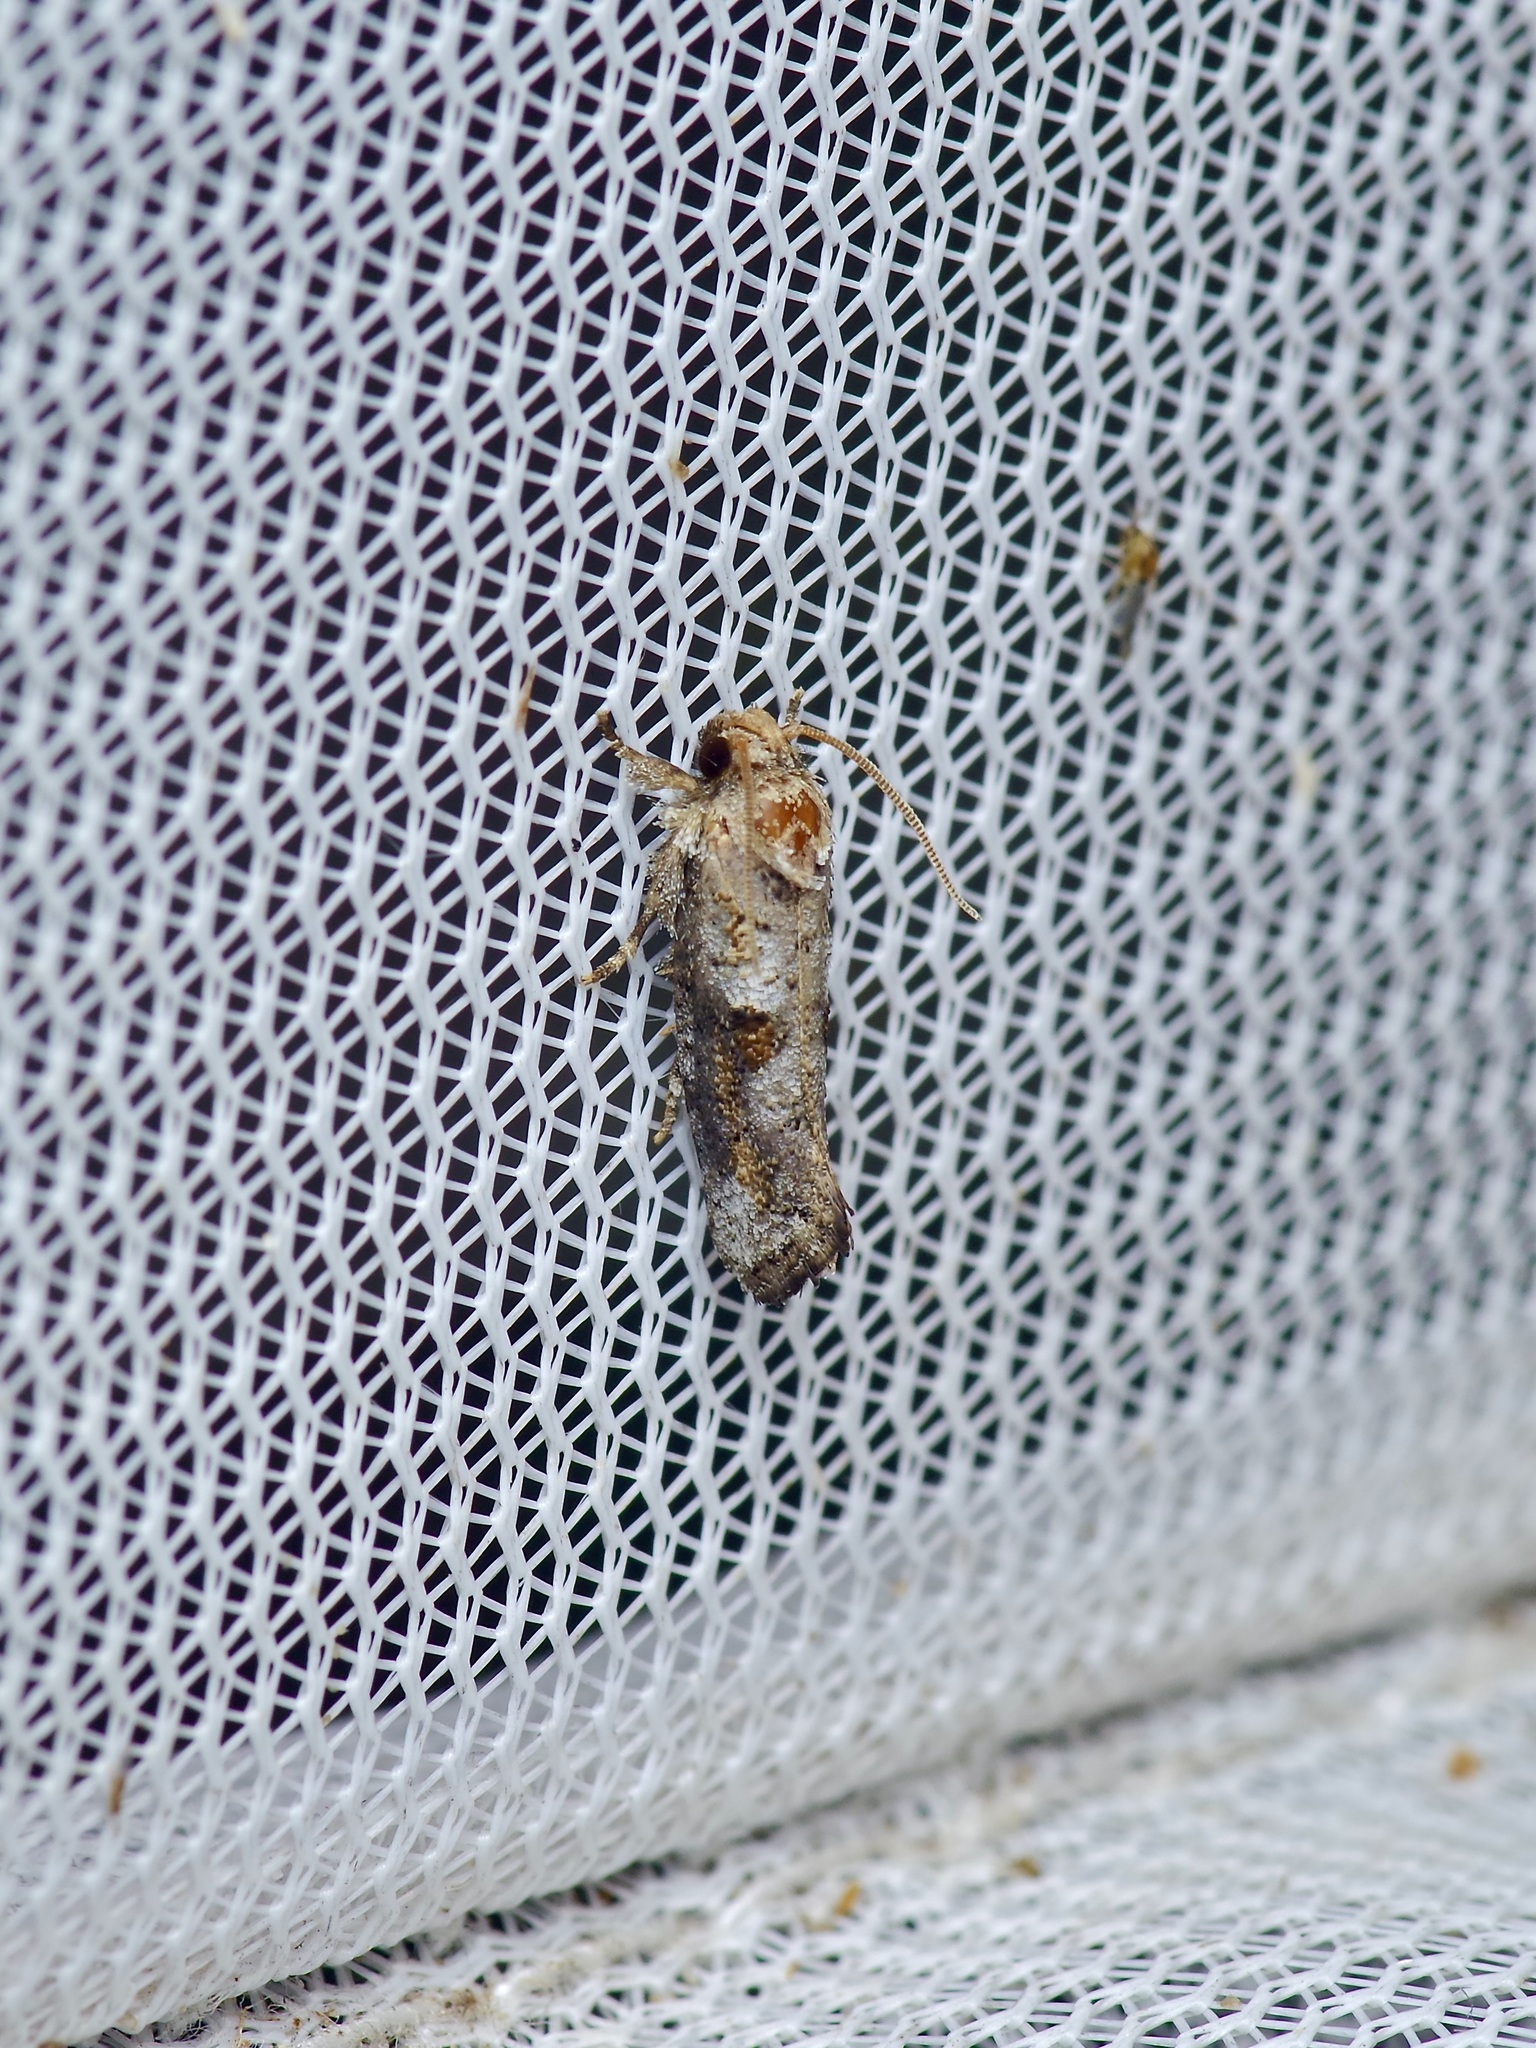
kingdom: Animalia
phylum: Arthropoda
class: Insecta
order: Lepidoptera
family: Tineidae
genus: Acrolophus
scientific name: Acrolophus piger
